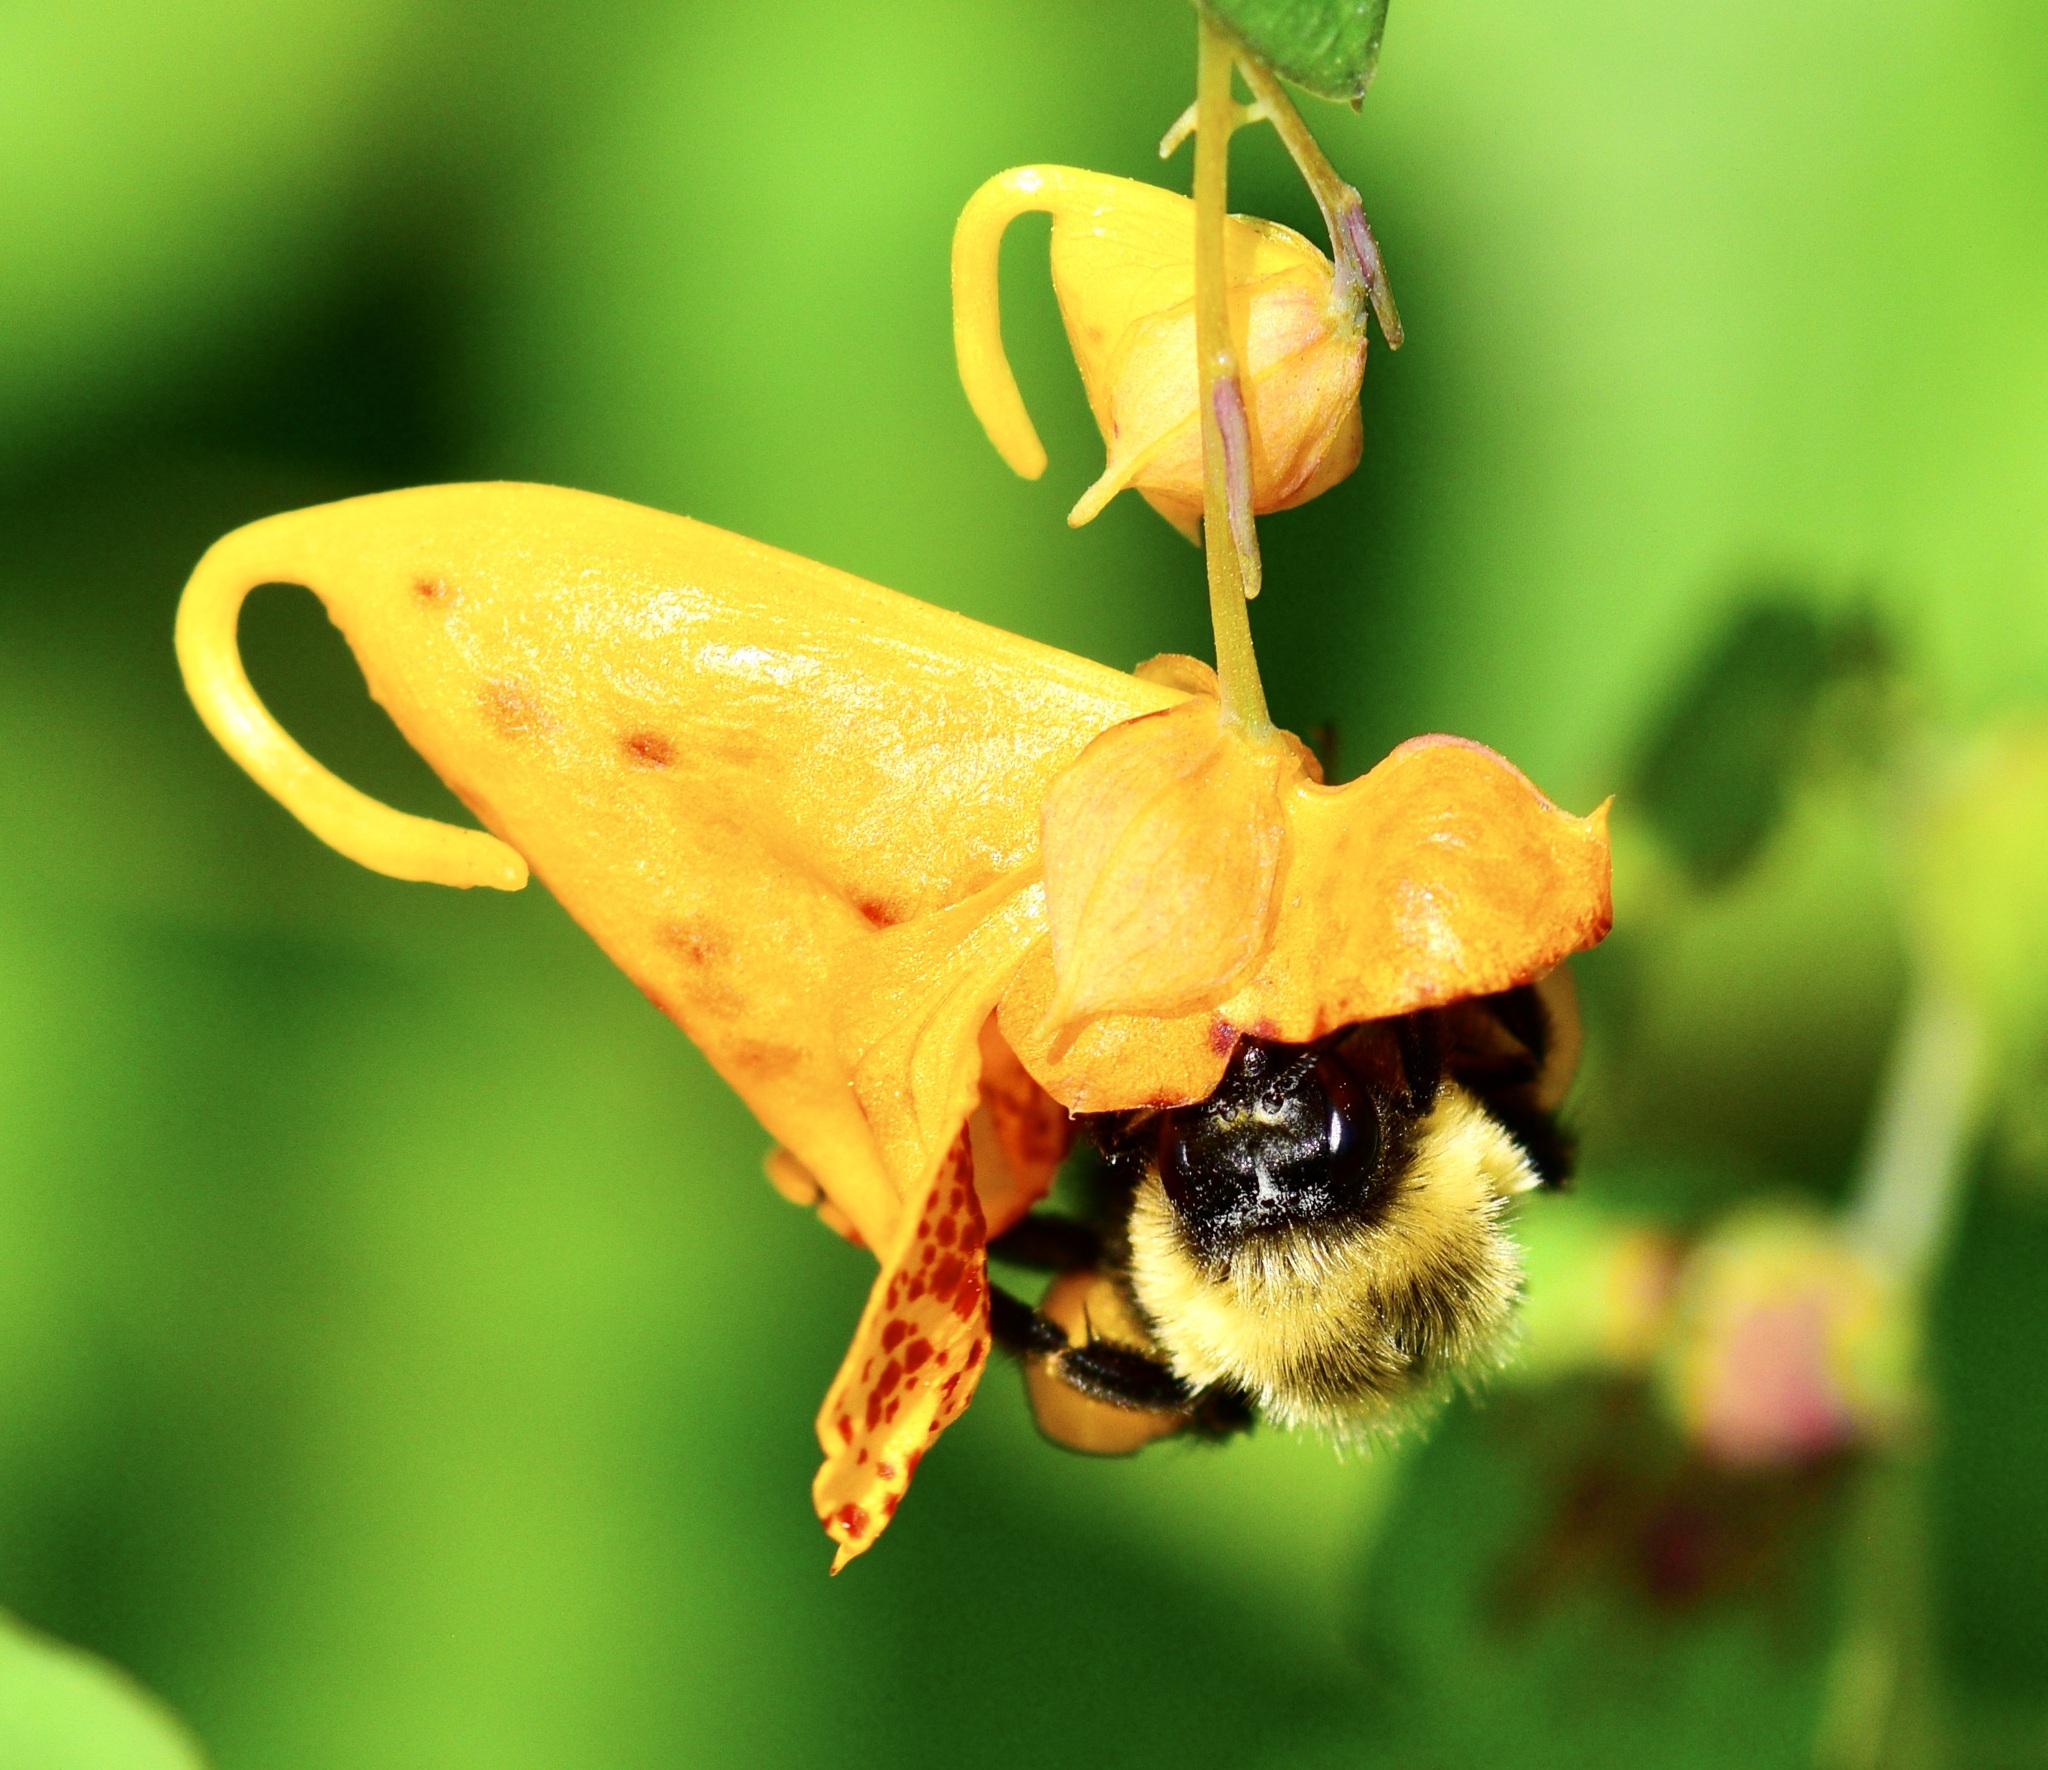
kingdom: Animalia
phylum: Arthropoda
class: Insecta
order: Hymenoptera
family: Apidae
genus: Bombus
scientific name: Bombus impatiens
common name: Common eastern bumble bee
